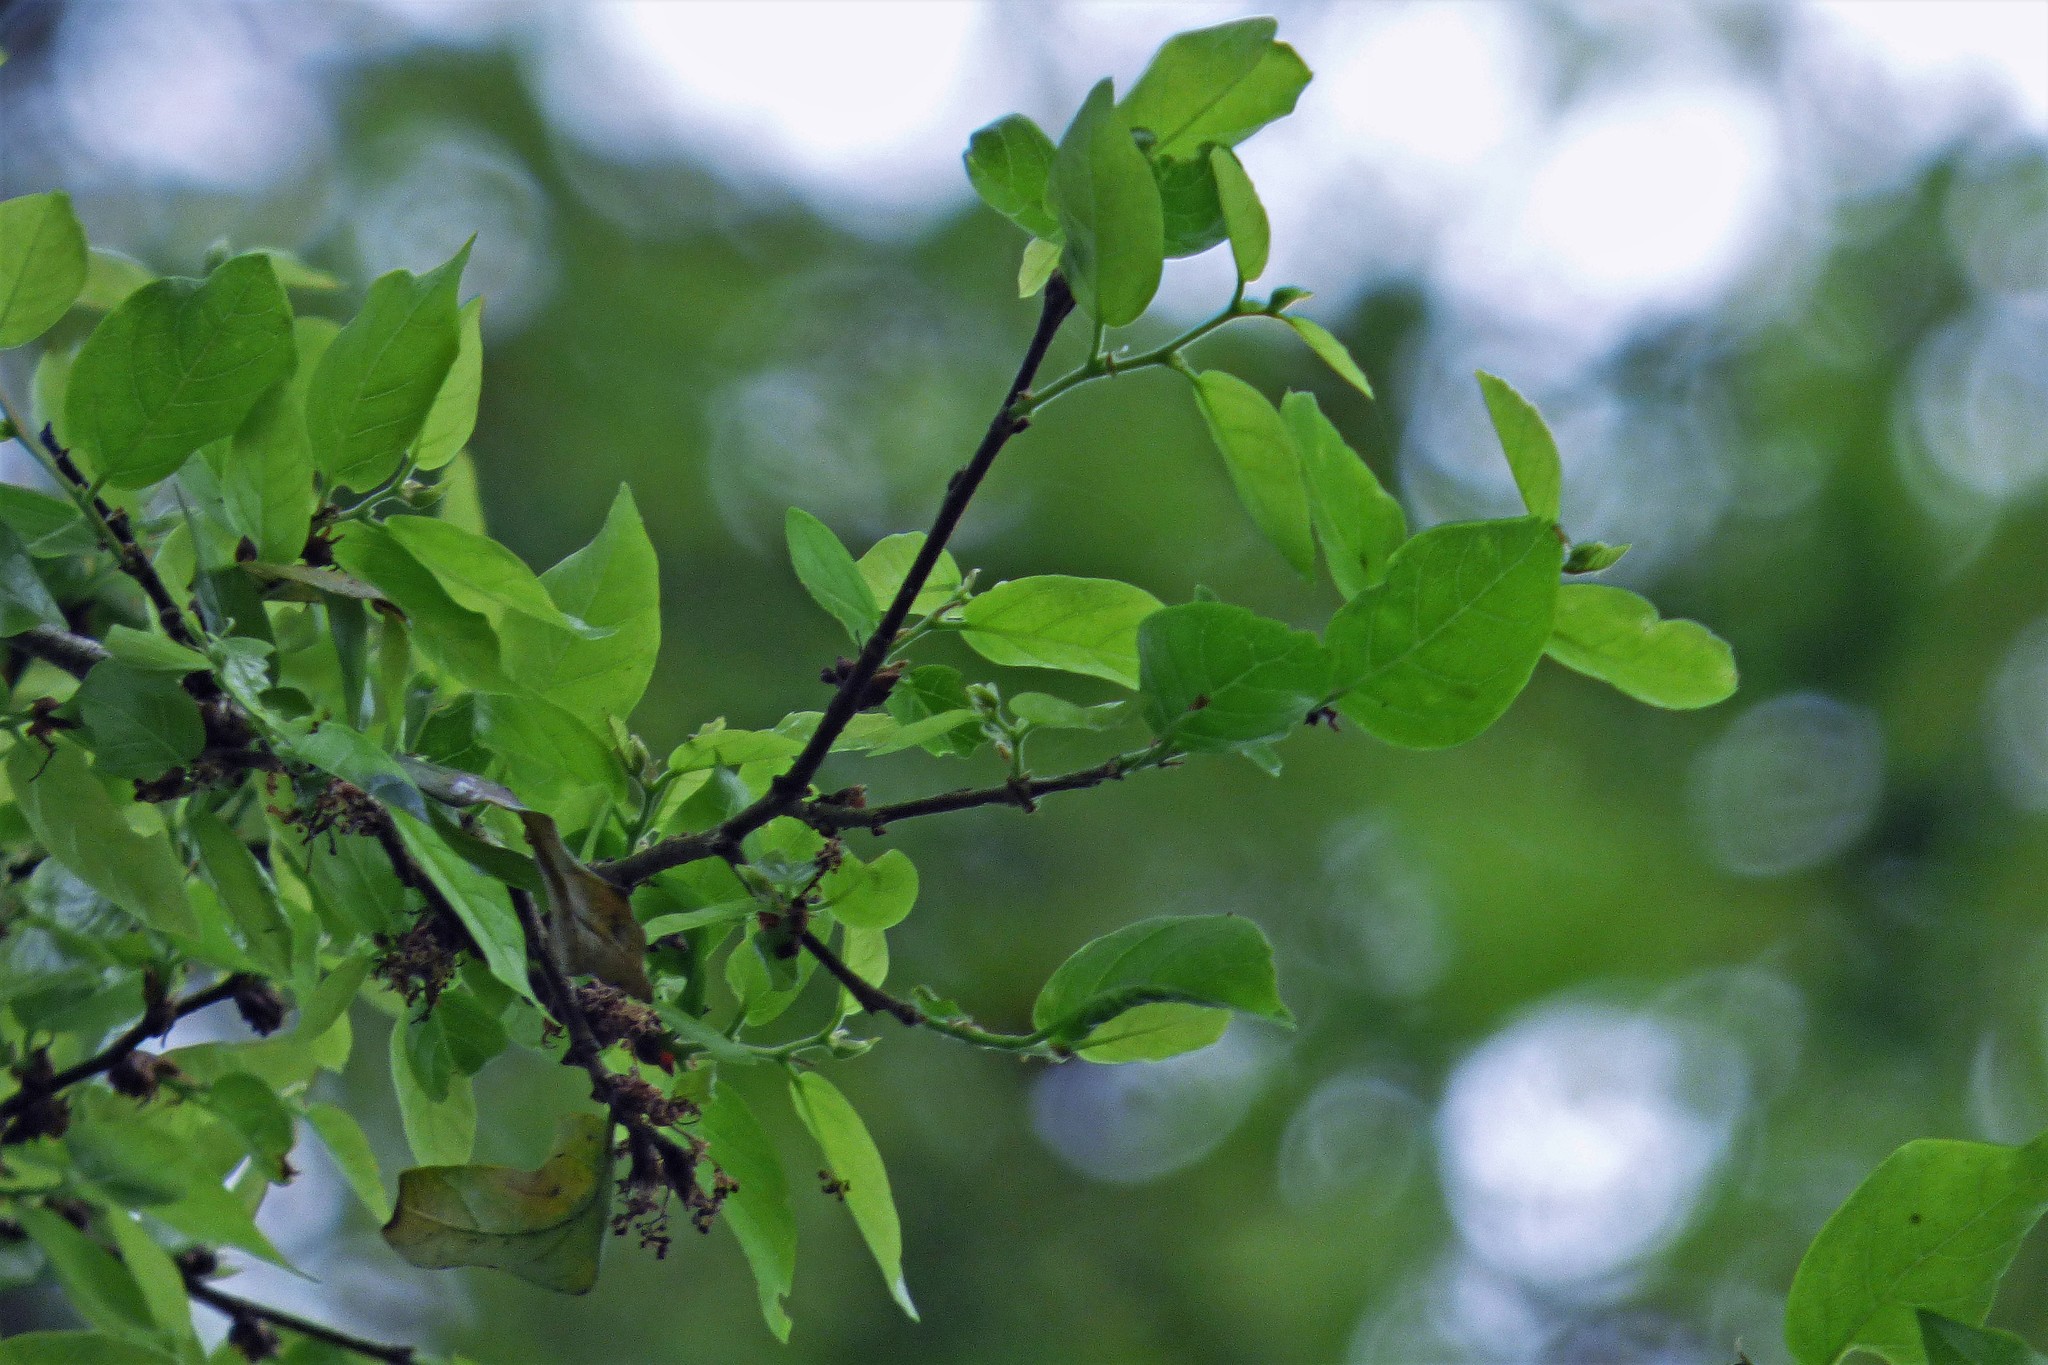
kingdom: Plantae
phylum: Tracheophyta
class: Magnoliopsida
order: Rosales
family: Ulmaceae
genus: Phyllostylon
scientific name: Phyllostylon rhamnoides
